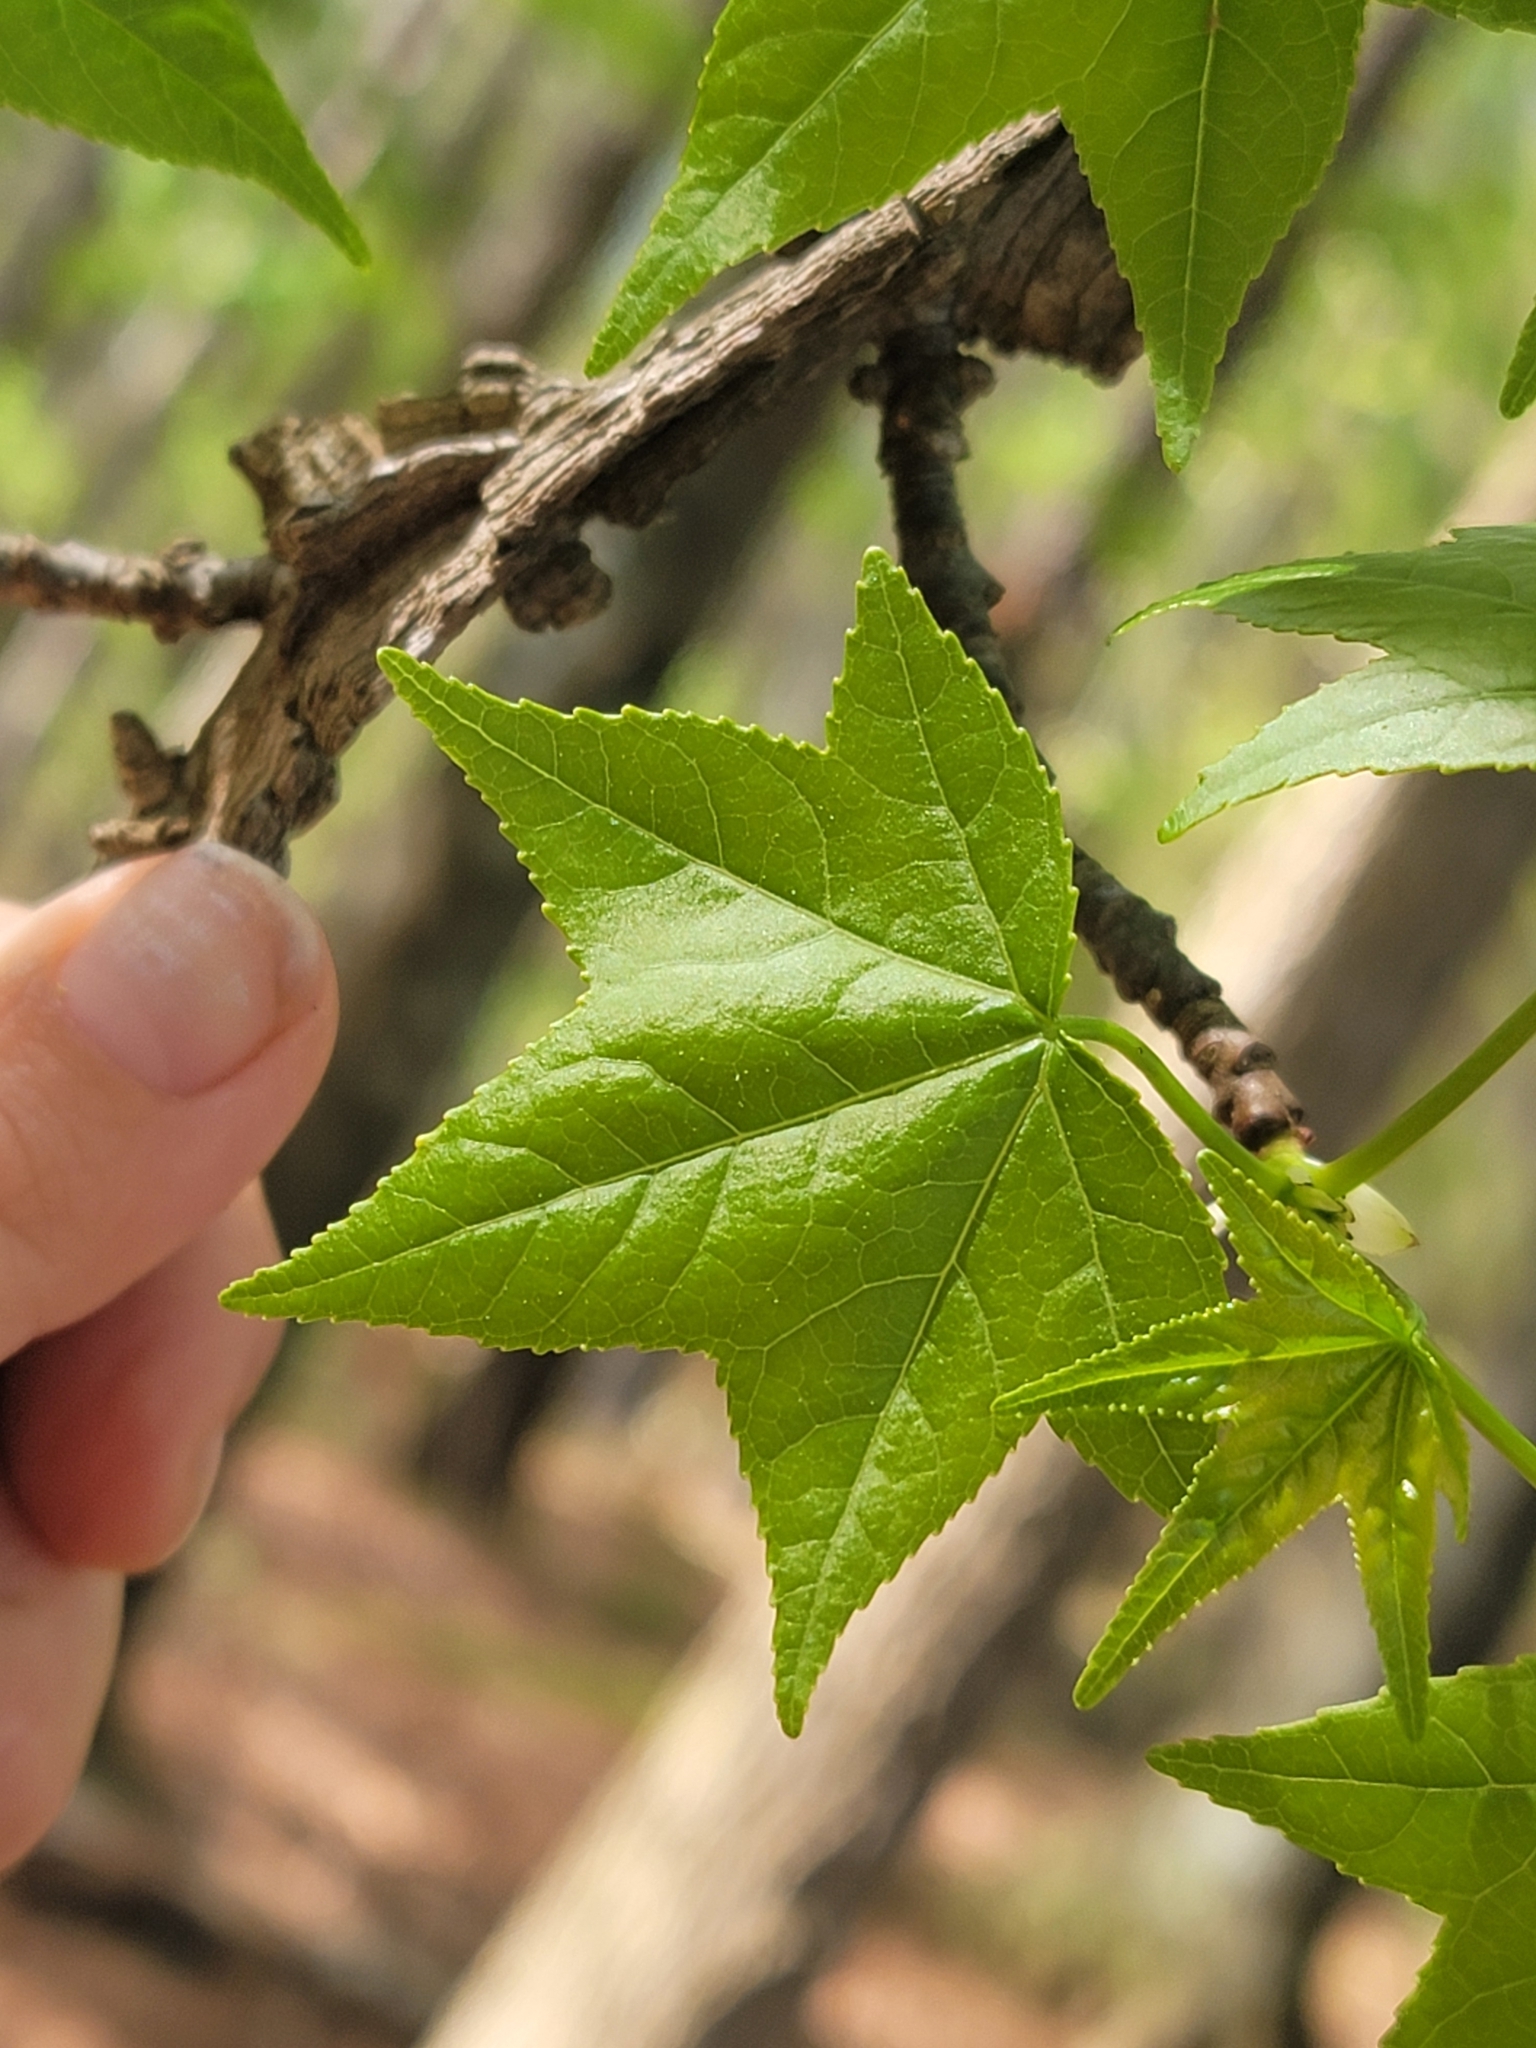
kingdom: Plantae
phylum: Tracheophyta
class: Magnoliopsida
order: Saxifragales
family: Altingiaceae
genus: Liquidambar
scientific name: Liquidambar styraciflua
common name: Sweet gum
